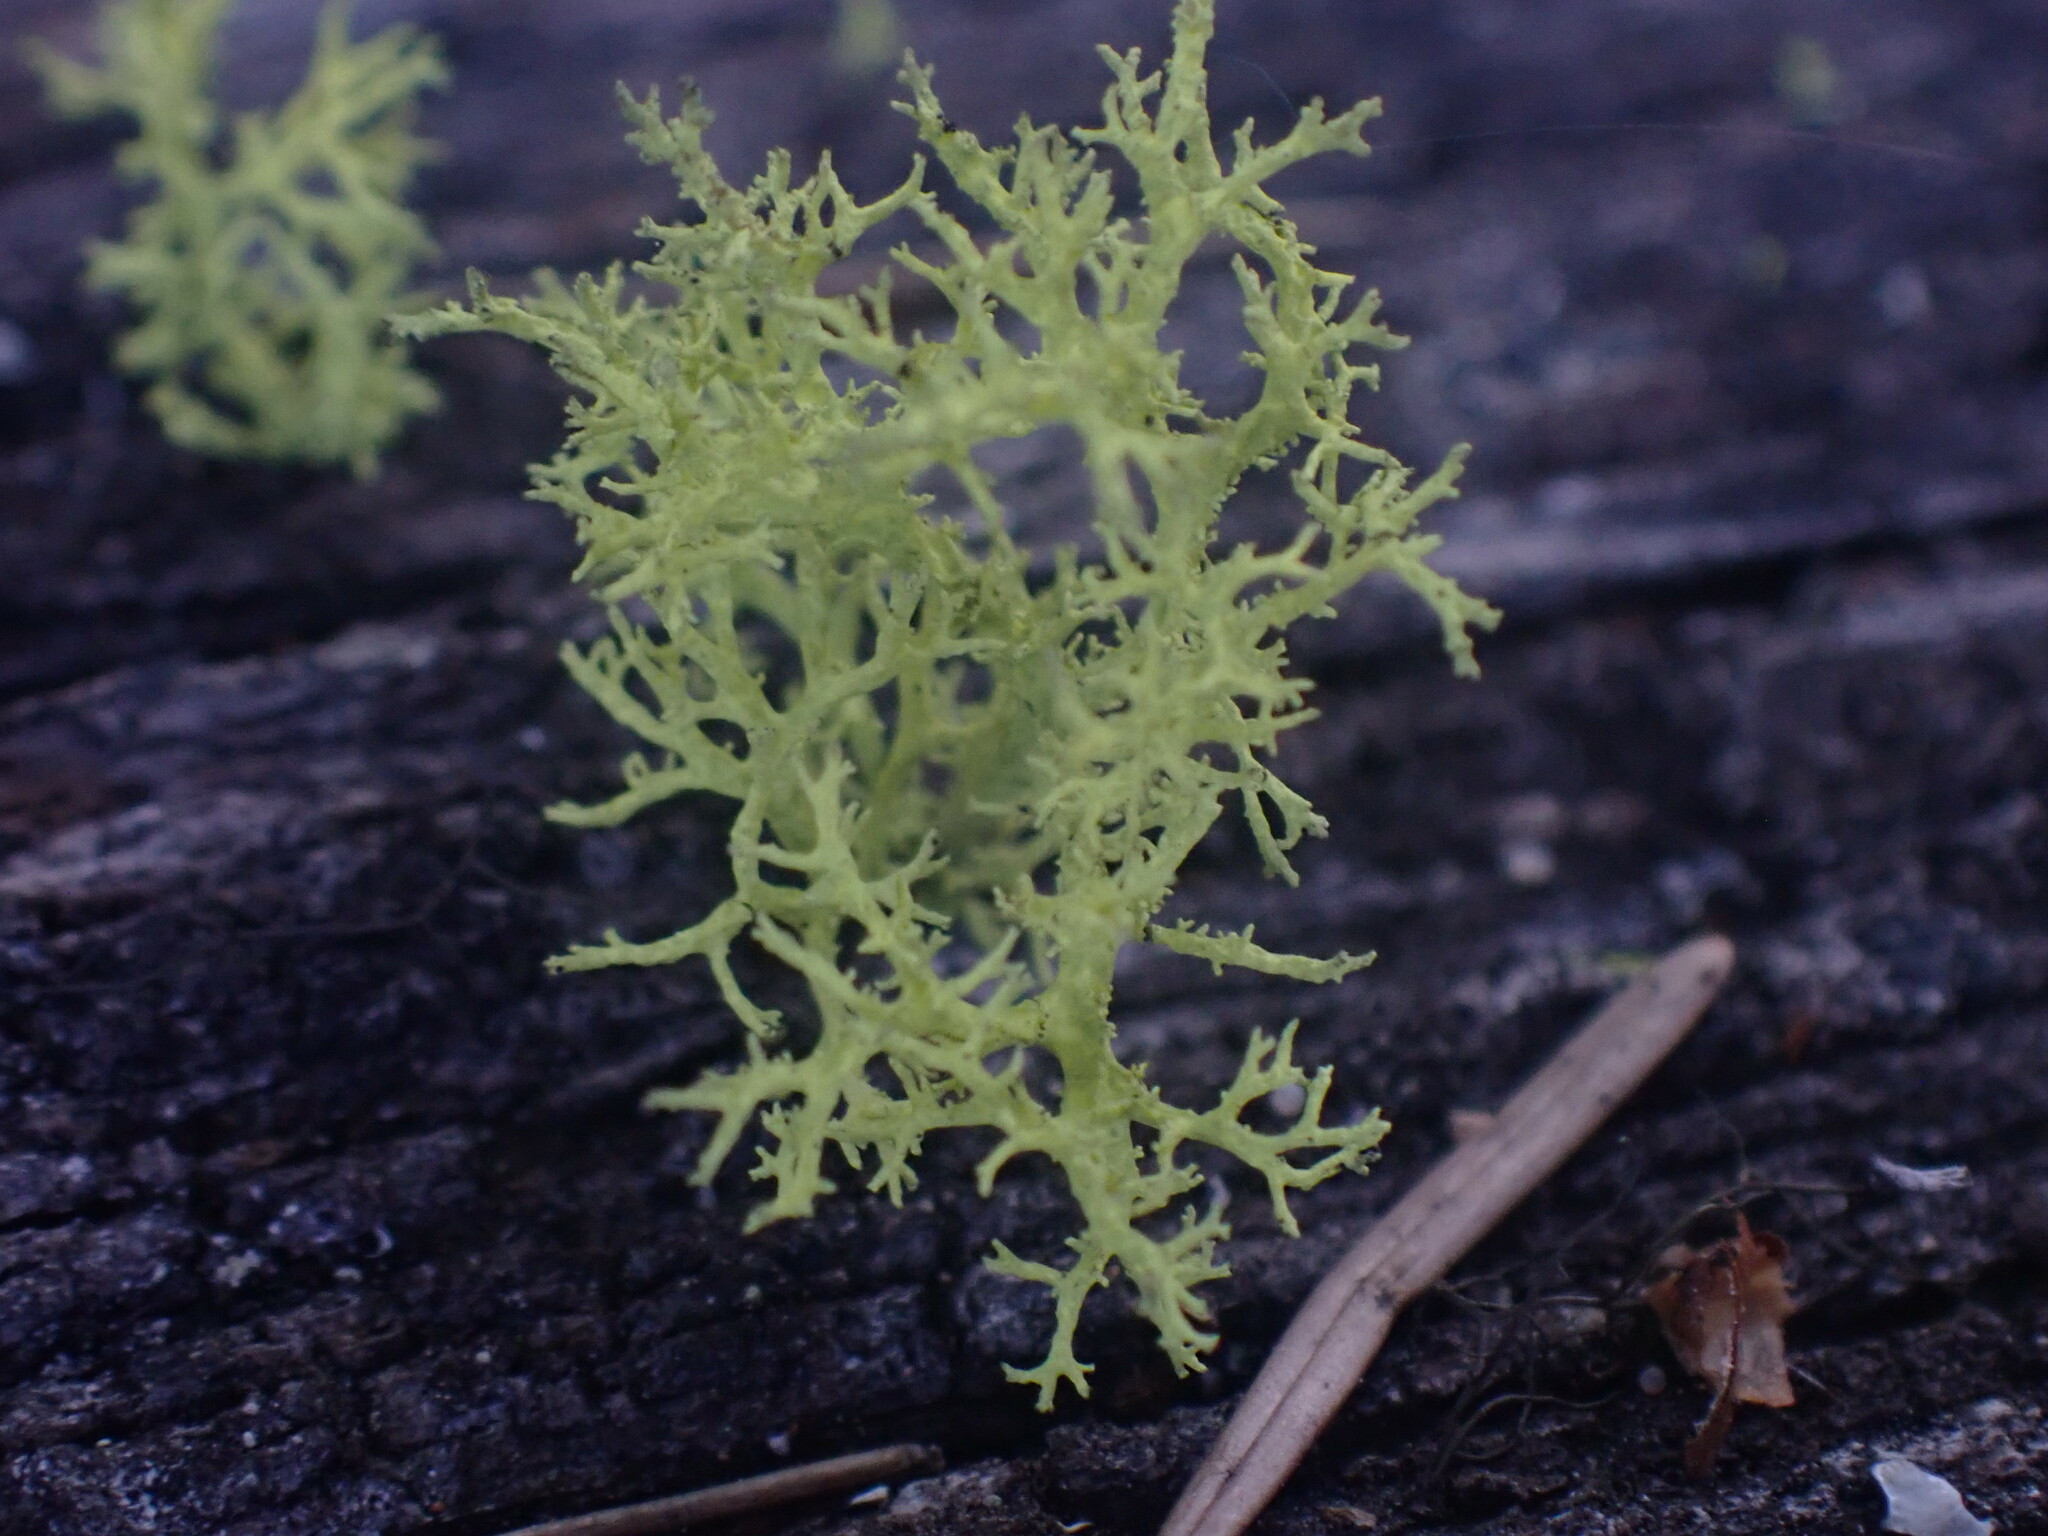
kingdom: Fungi
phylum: Ascomycota
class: Lecanoromycetes
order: Lecanorales
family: Parmeliaceae
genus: Letharia
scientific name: Letharia vulpina
